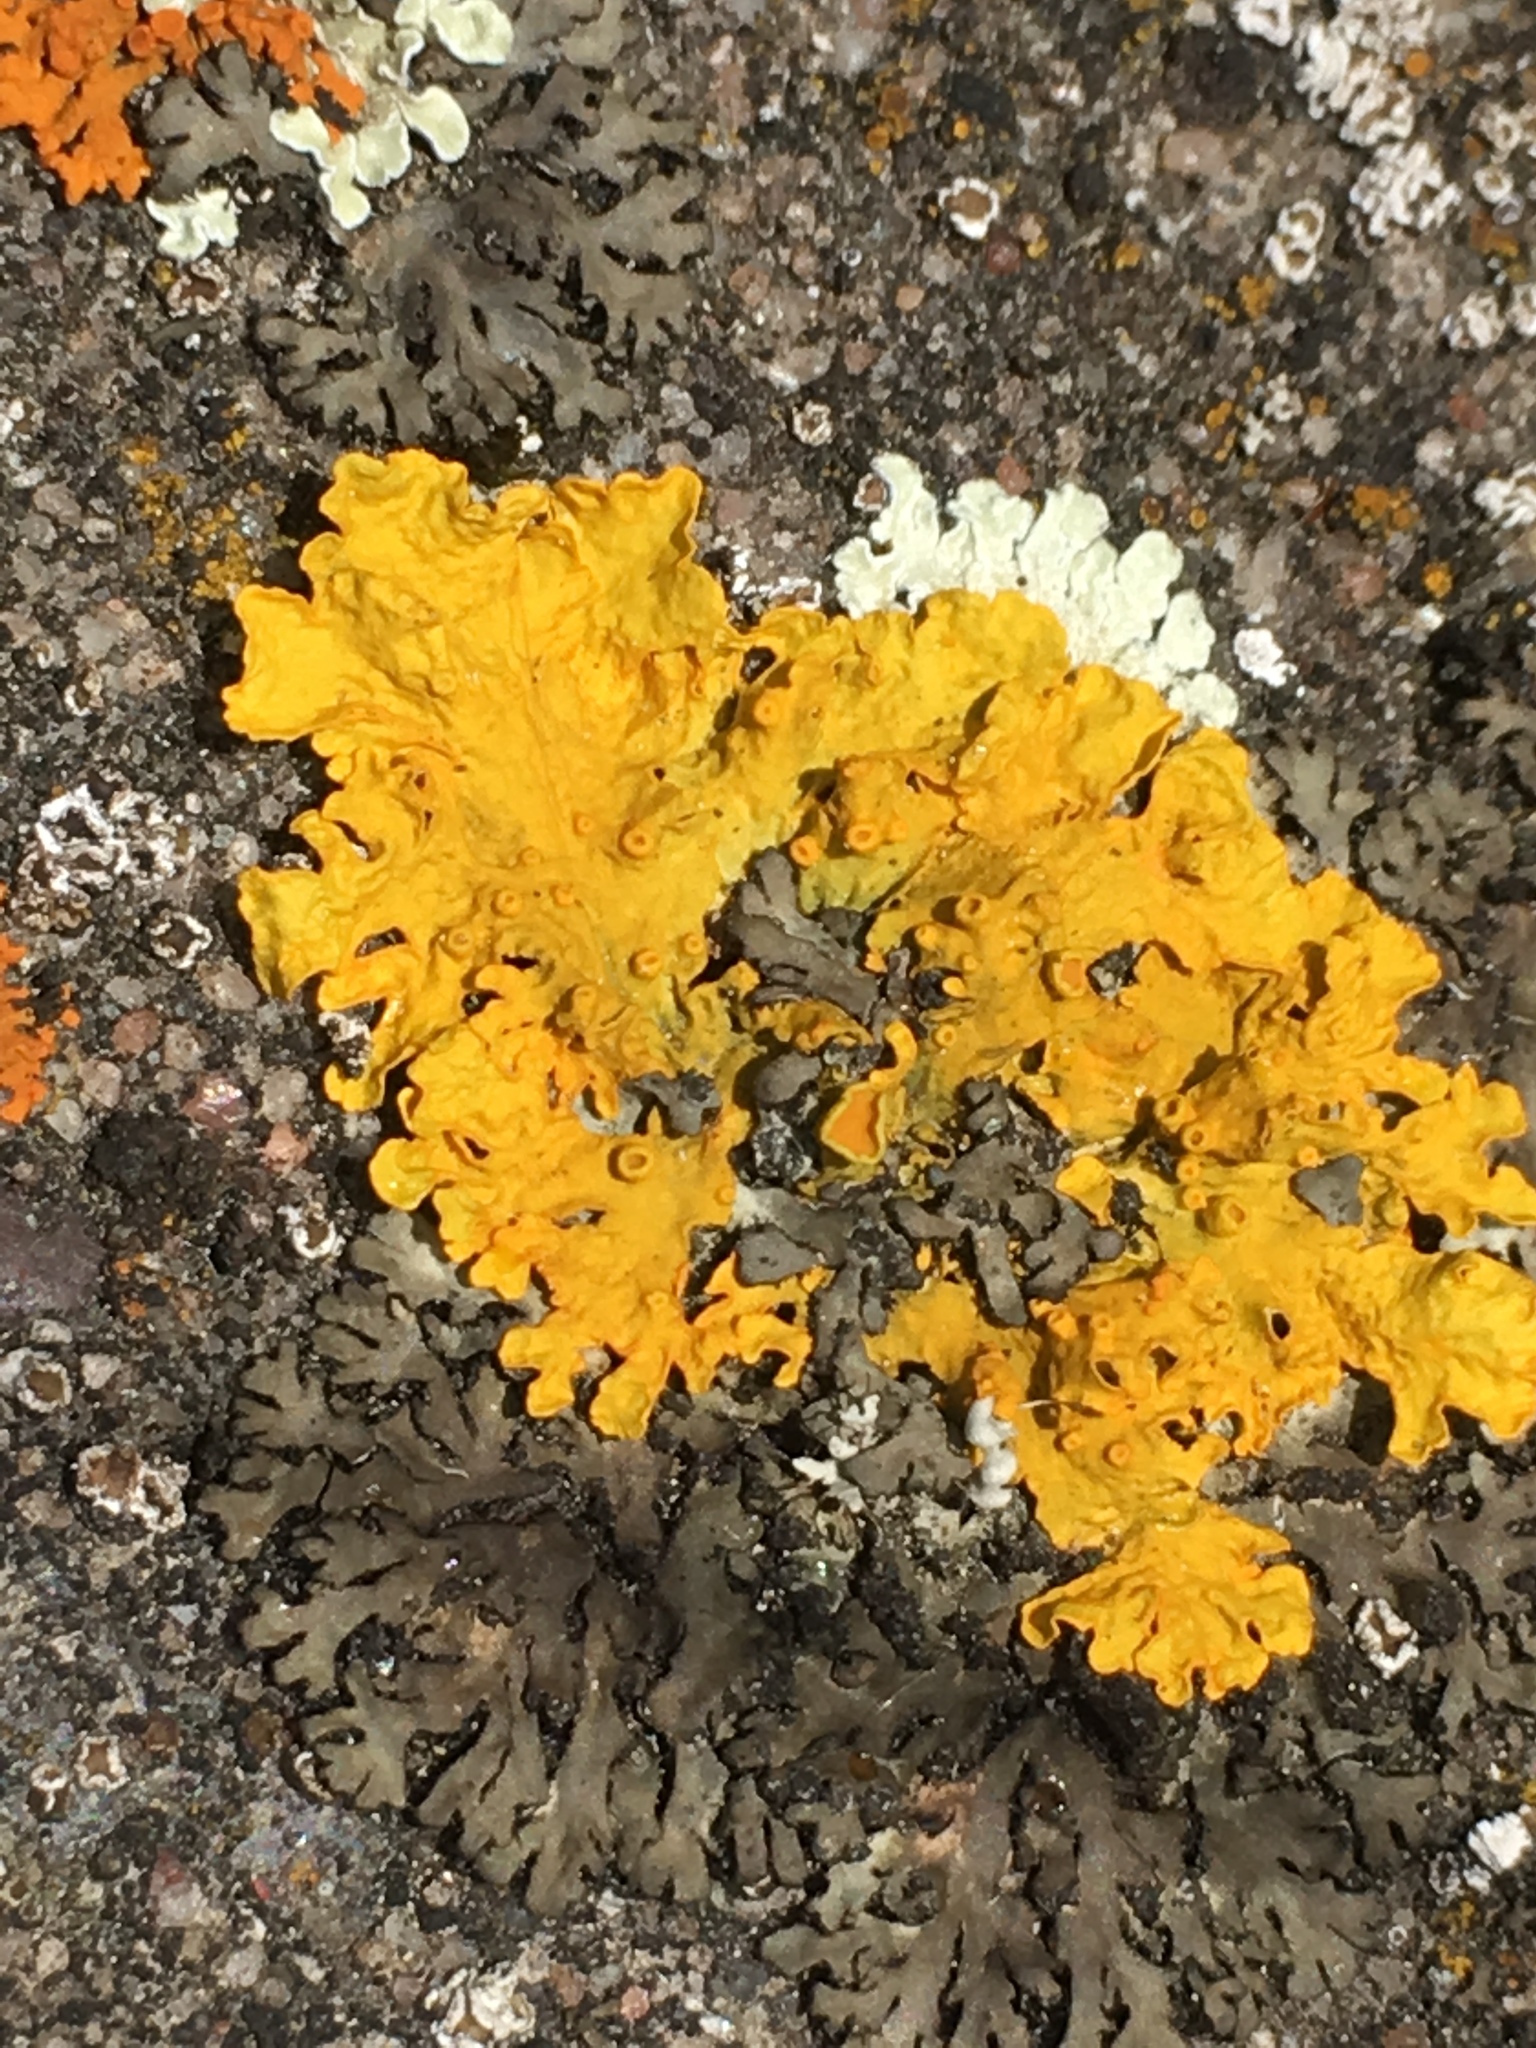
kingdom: Fungi
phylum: Ascomycota
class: Lecanoromycetes
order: Teloschistales
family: Teloschistaceae
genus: Xanthoria
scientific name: Xanthoria parietina
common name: Common orange lichen
